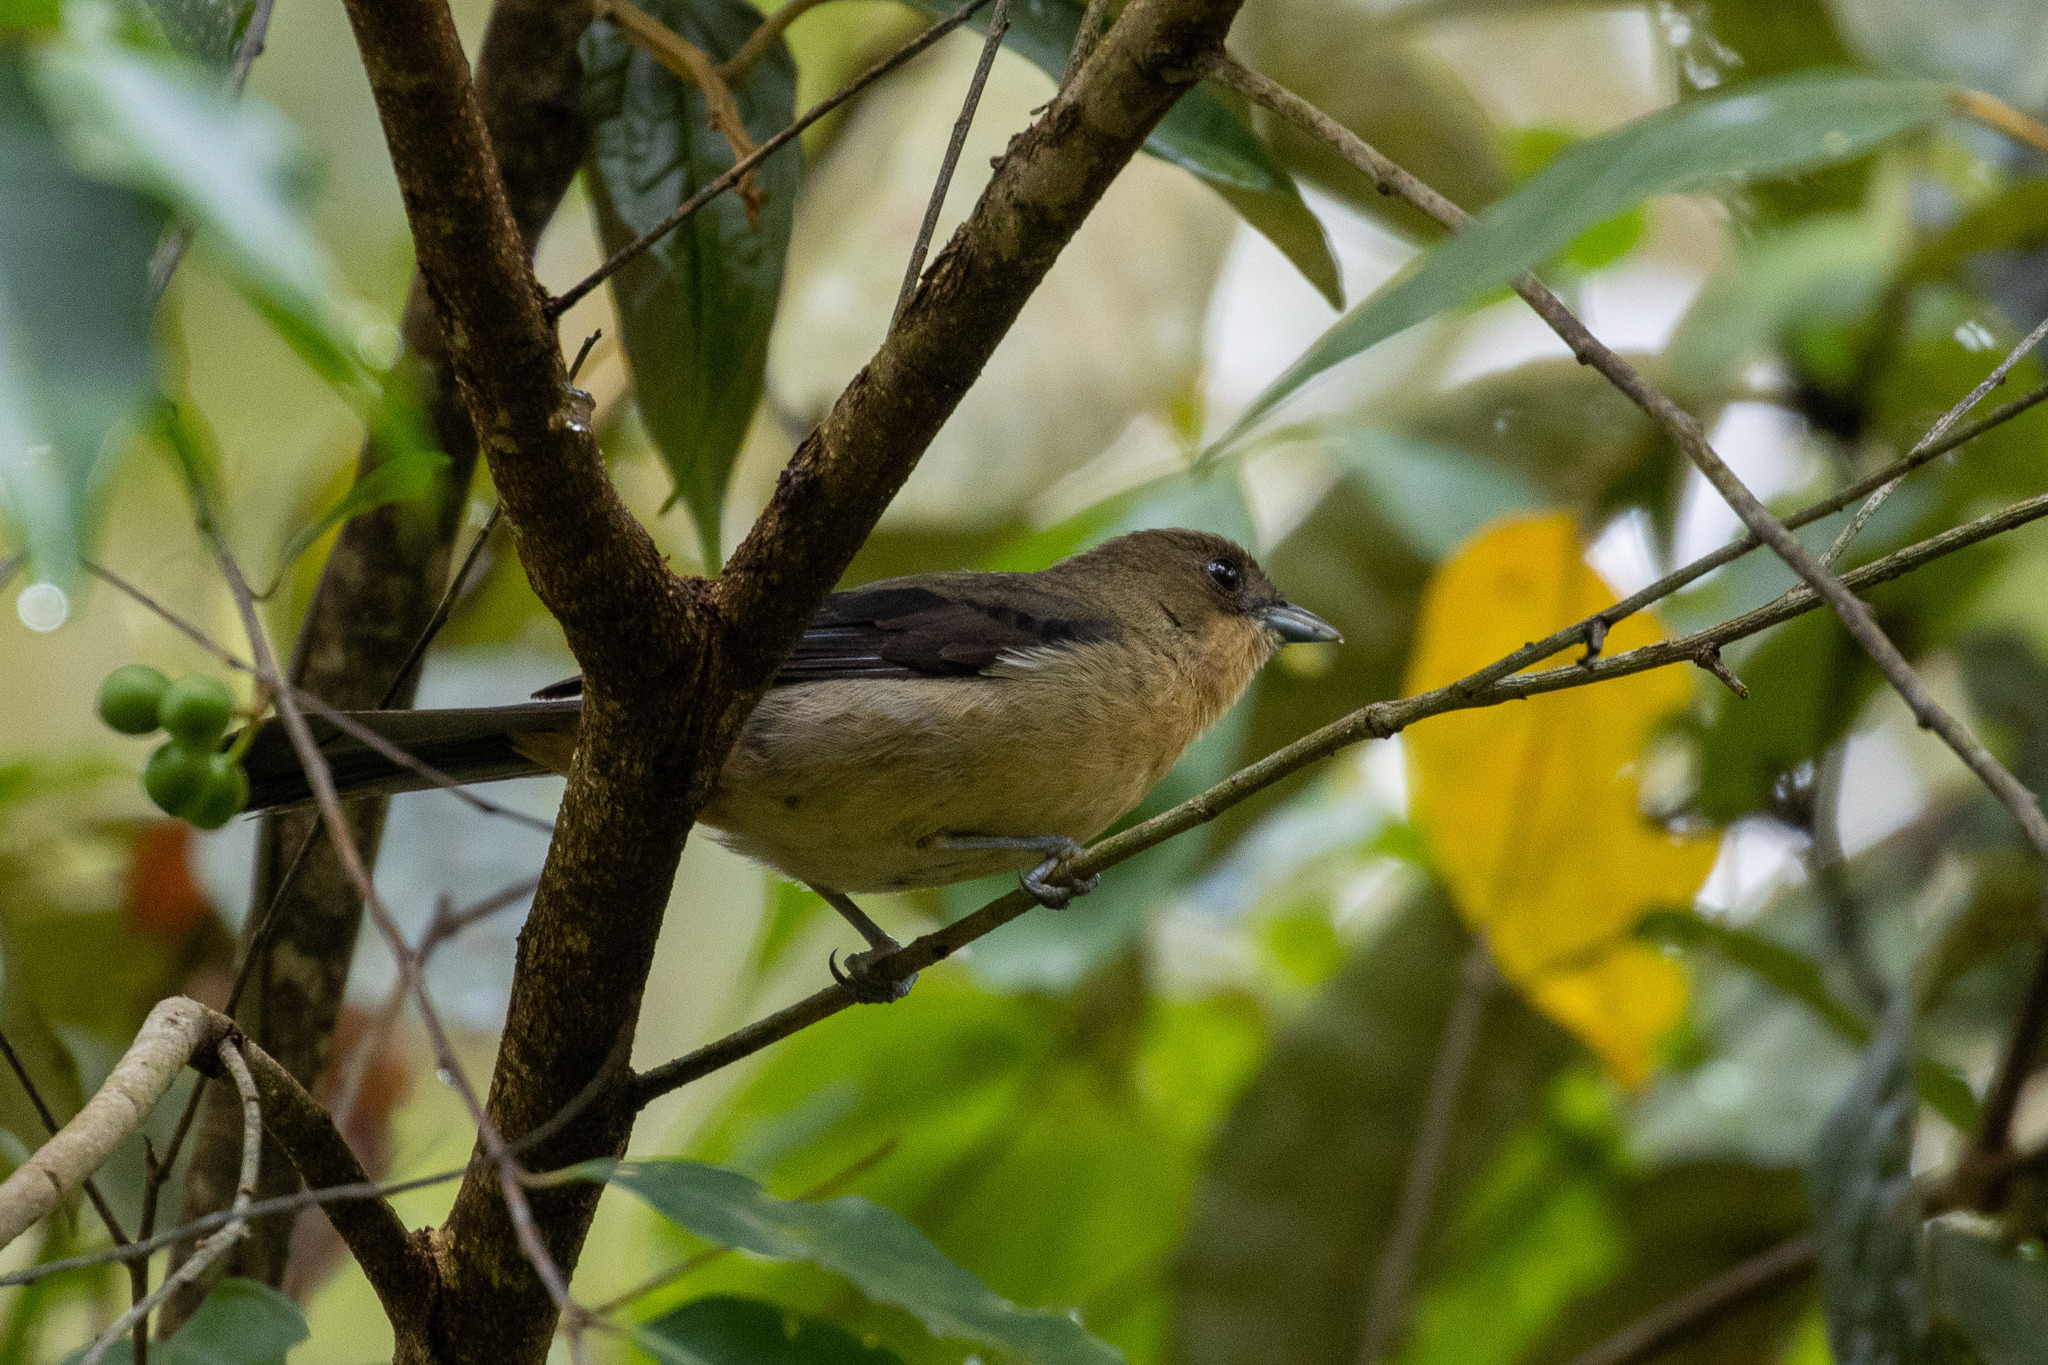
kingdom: Animalia
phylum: Chordata
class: Aves
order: Passeriformes
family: Thraupidae
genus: Trichothraupis
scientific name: Trichothraupis melanops
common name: Black-goggled tanager
